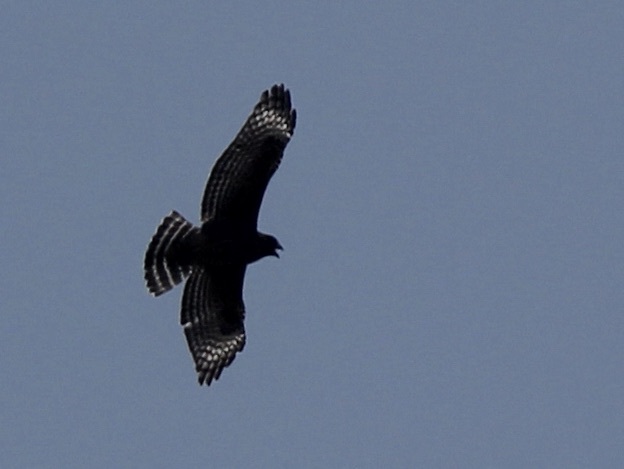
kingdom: Animalia
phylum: Chordata
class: Aves
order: Accipitriformes
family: Accipitridae
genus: Buteo
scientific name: Buteo lineatus
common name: Red-shouldered hawk
